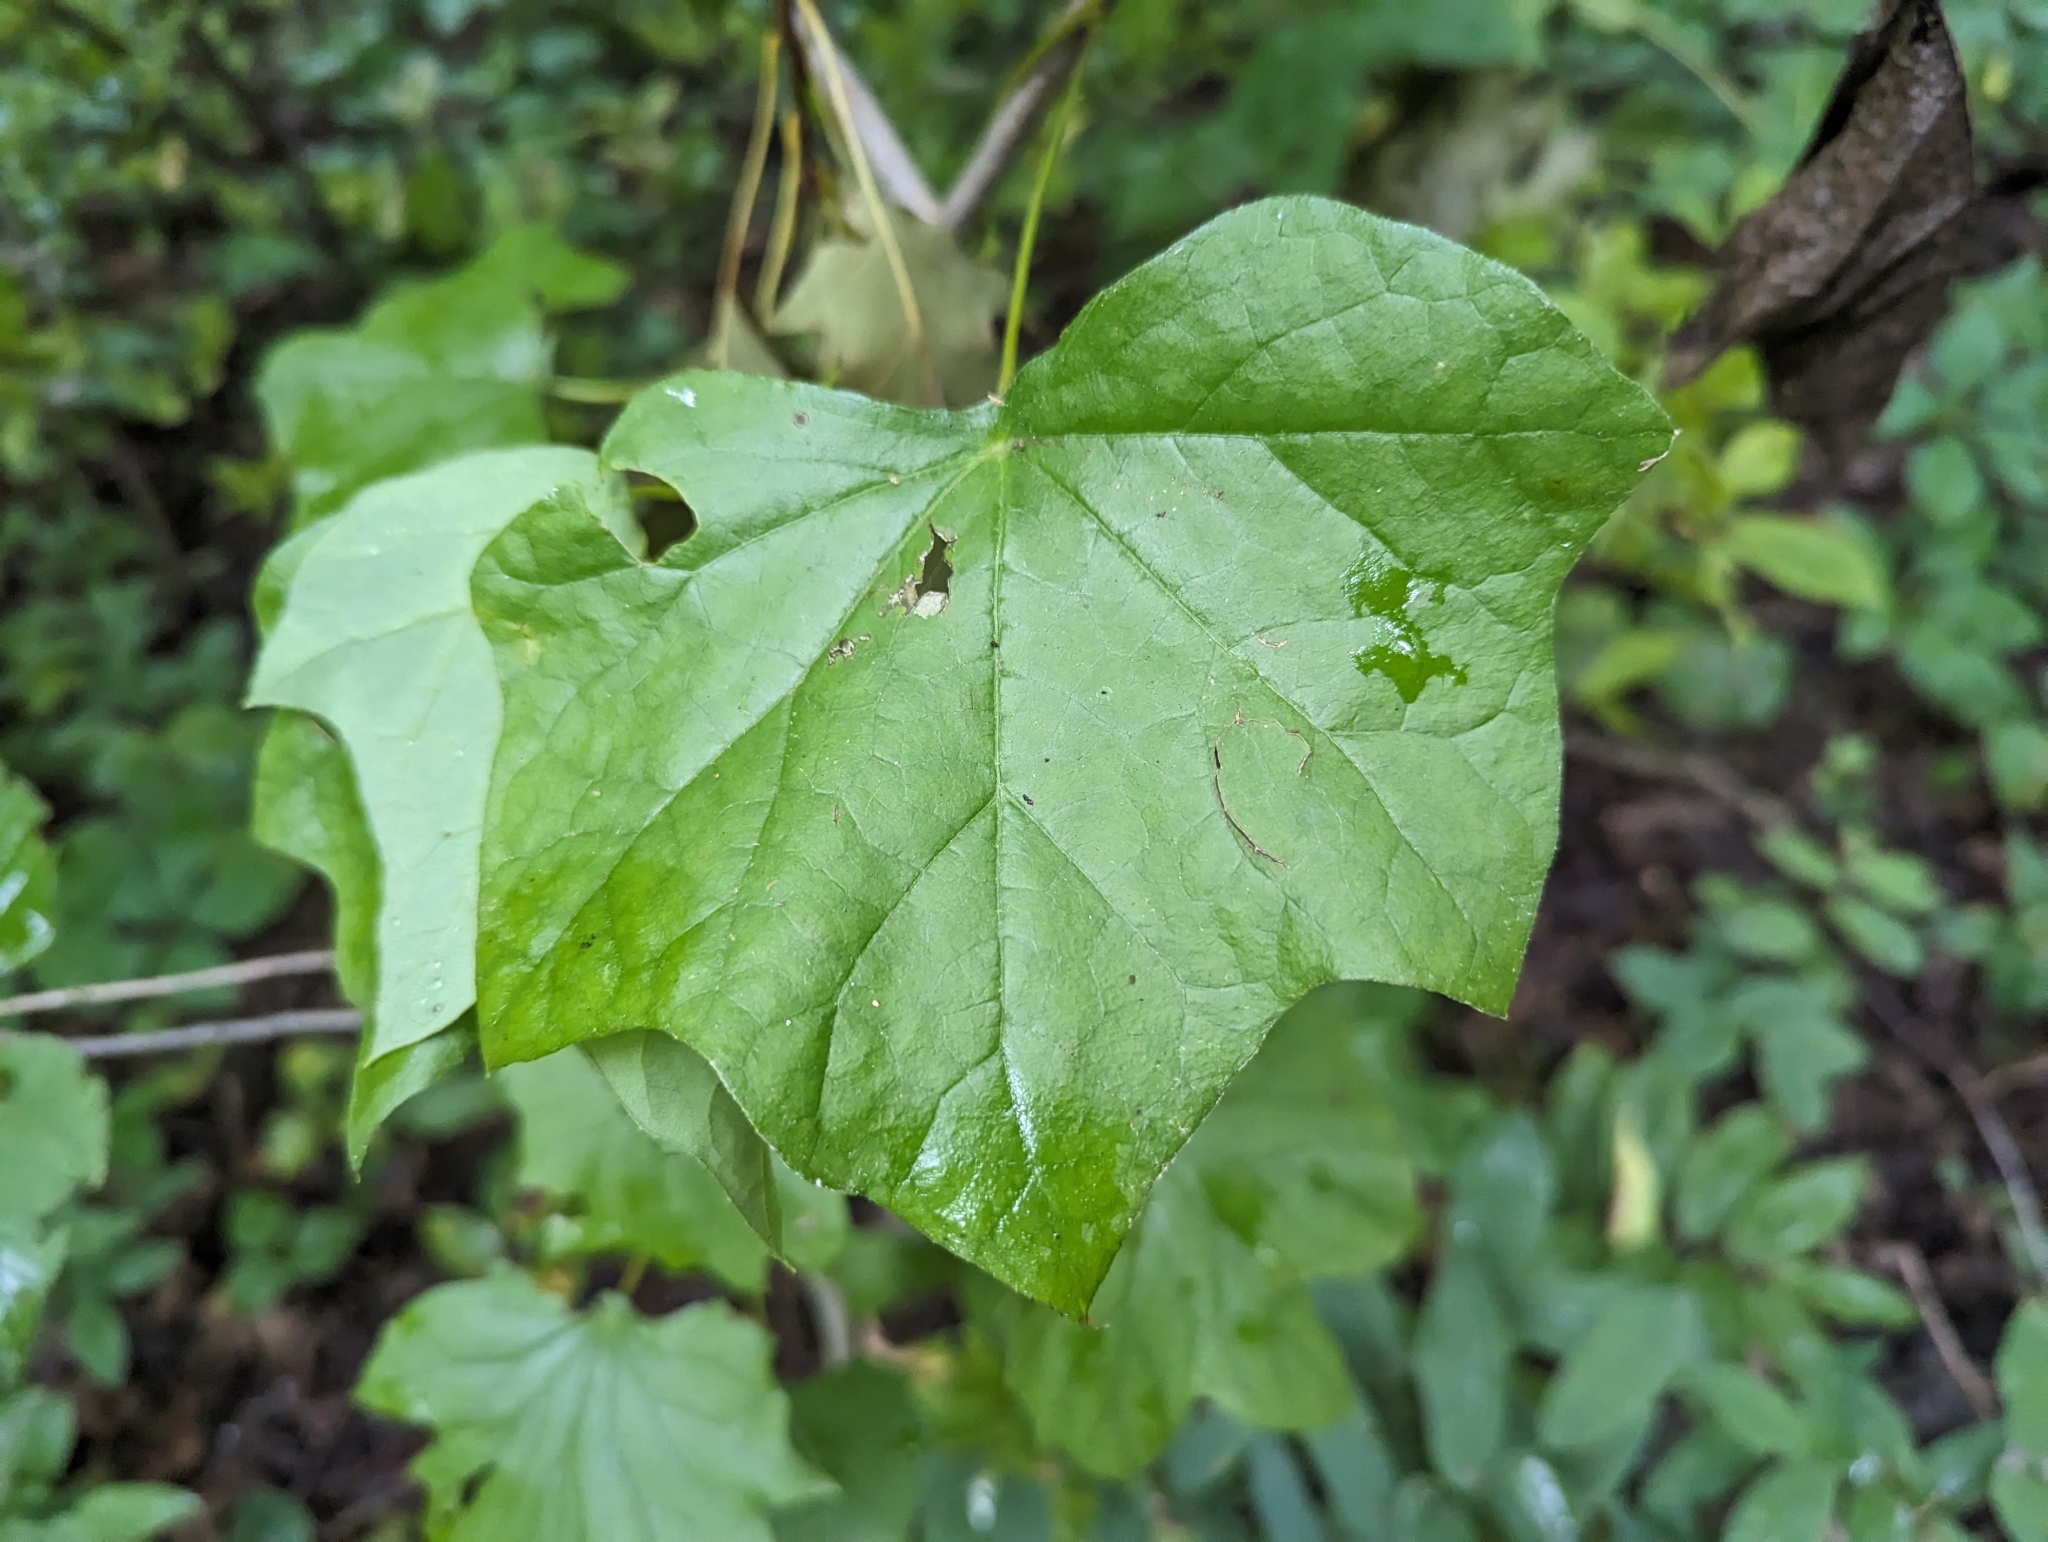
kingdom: Plantae
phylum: Tracheophyta
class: Magnoliopsida
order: Ranunculales
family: Menispermaceae
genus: Menispermum
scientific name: Menispermum canadense
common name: Moonseed
